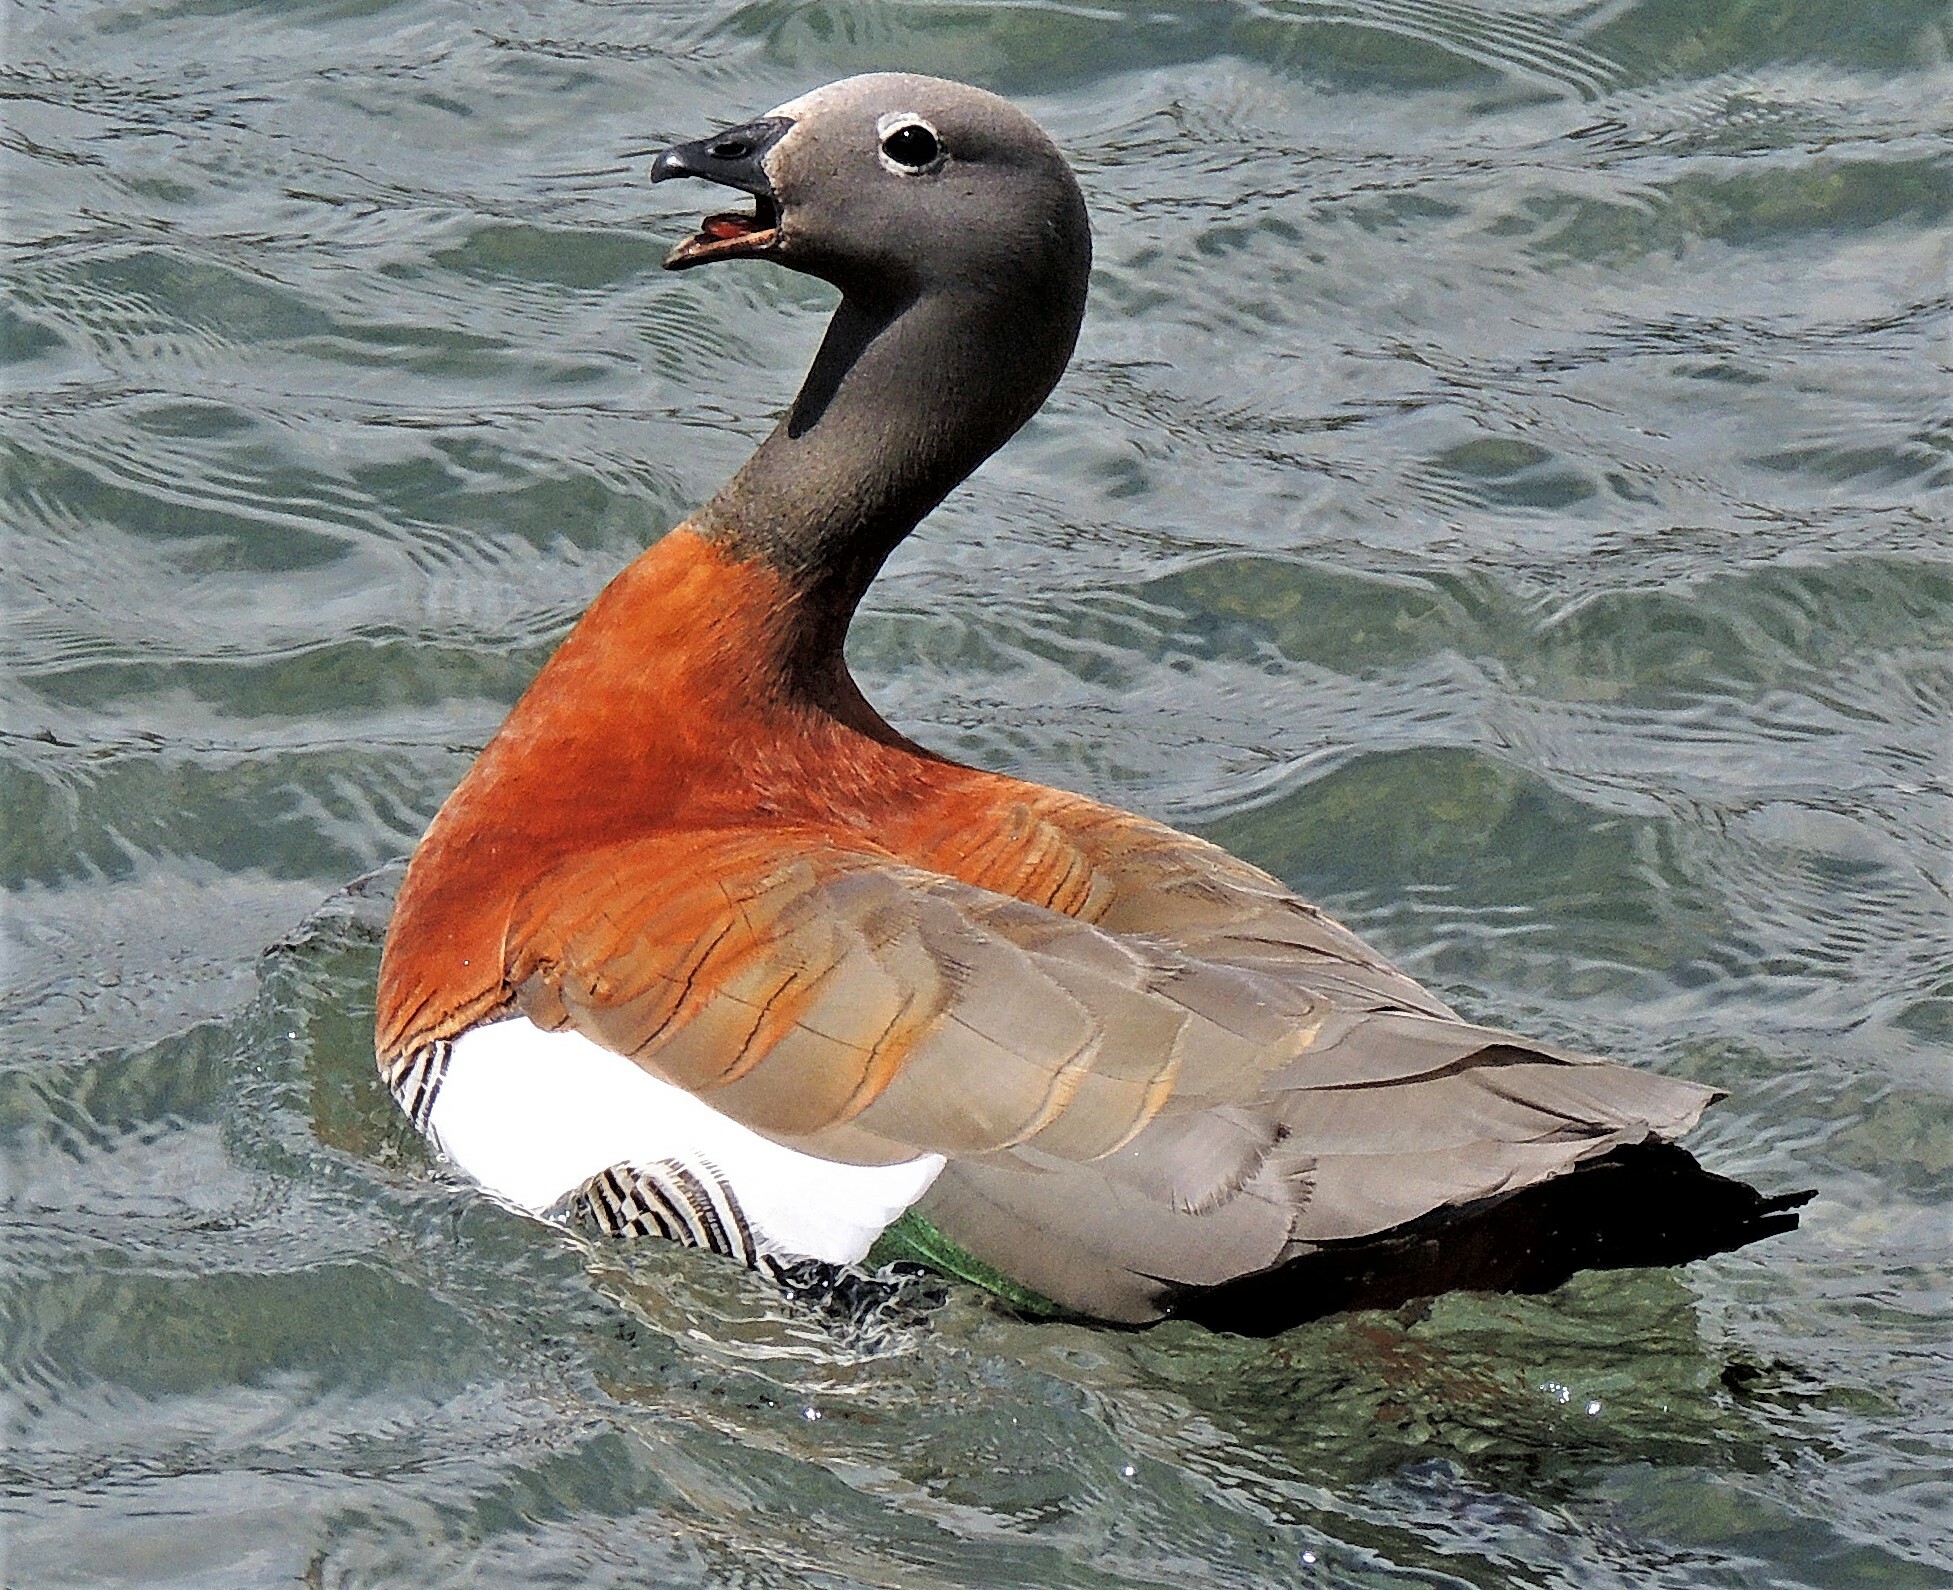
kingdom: Animalia
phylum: Chordata
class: Aves
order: Anseriformes
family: Anatidae
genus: Chloephaga
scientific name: Chloephaga poliocephala
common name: Ashy-headed goose
